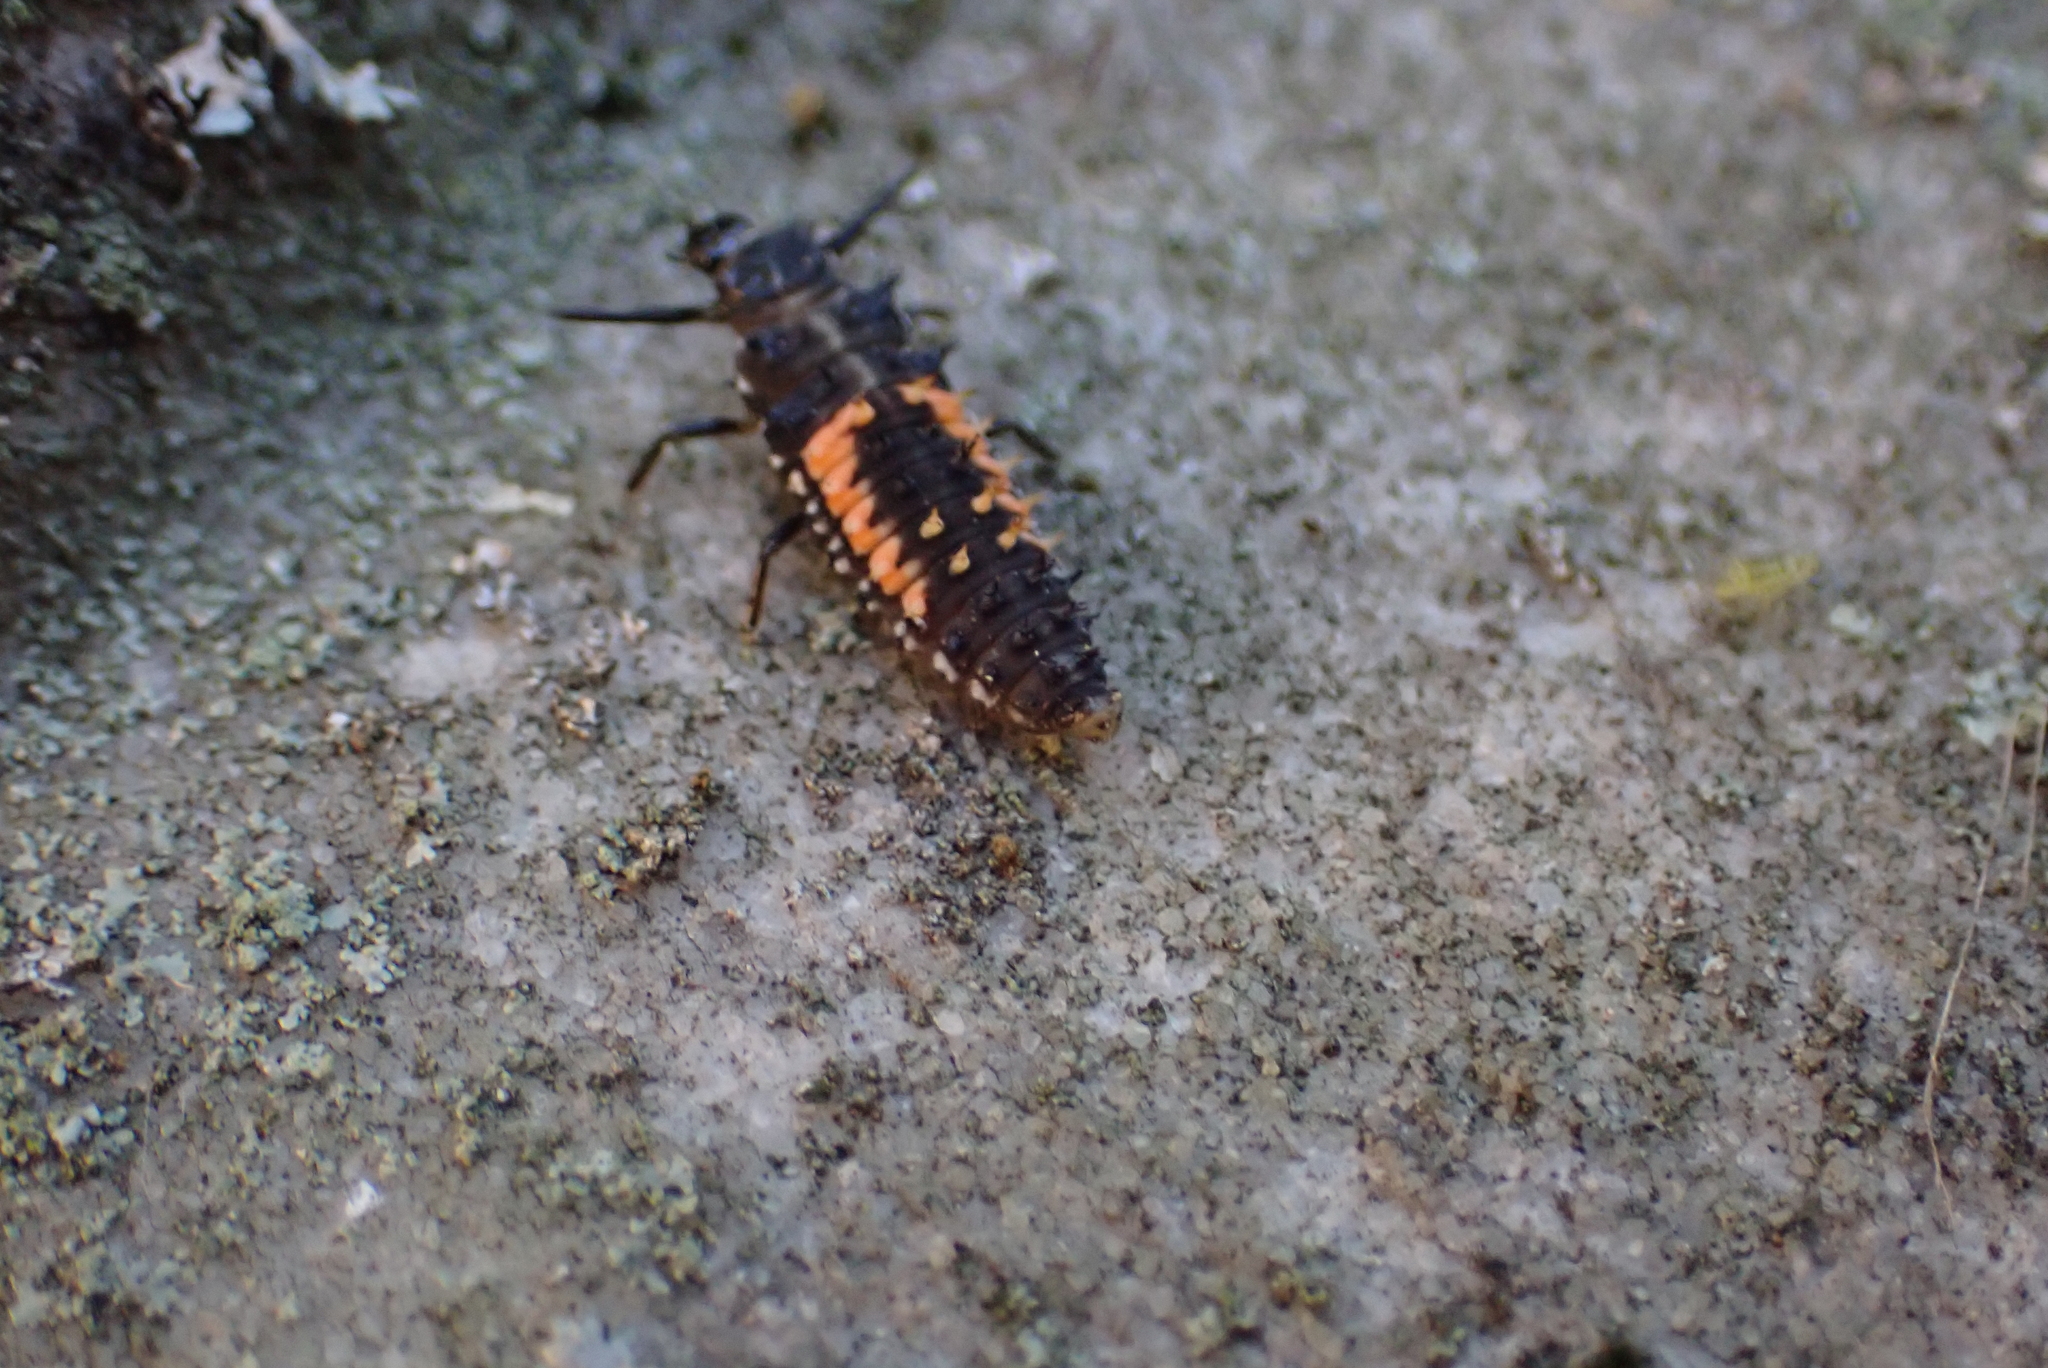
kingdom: Animalia
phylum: Arthropoda
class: Insecta
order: Coleoptera
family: Coccinellidae
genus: Harmonia
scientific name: Harmonia axyridis
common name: Harlequin ladybird
